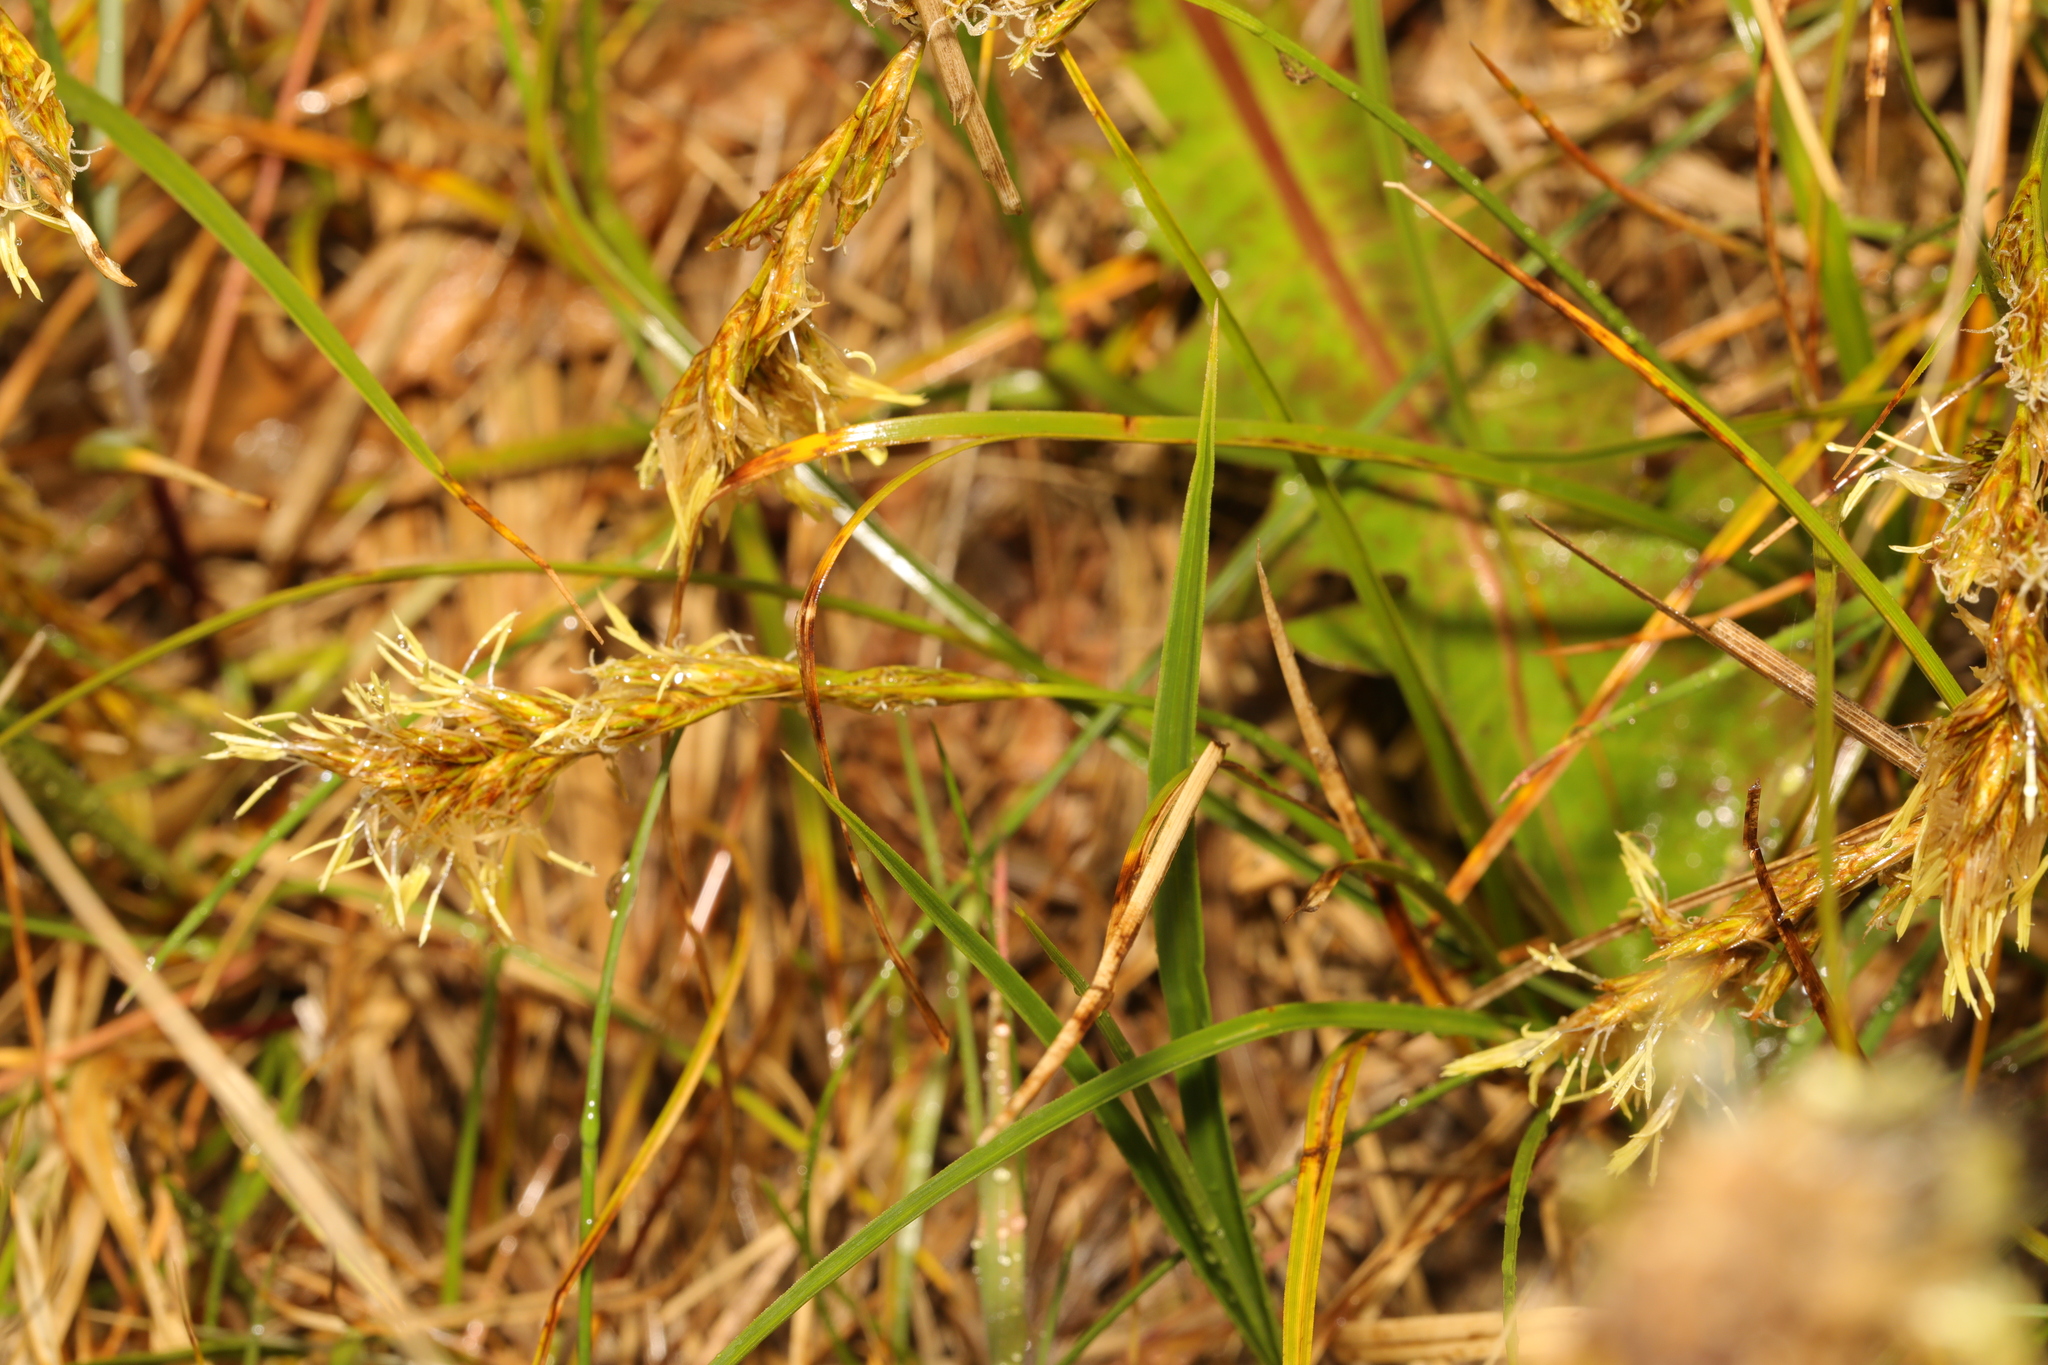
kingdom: Plantae
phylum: Tracheophyta
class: Liliopsida
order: Poales
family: Cyperaceae
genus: Carex
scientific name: Carex arenaria
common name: Sand sedge
